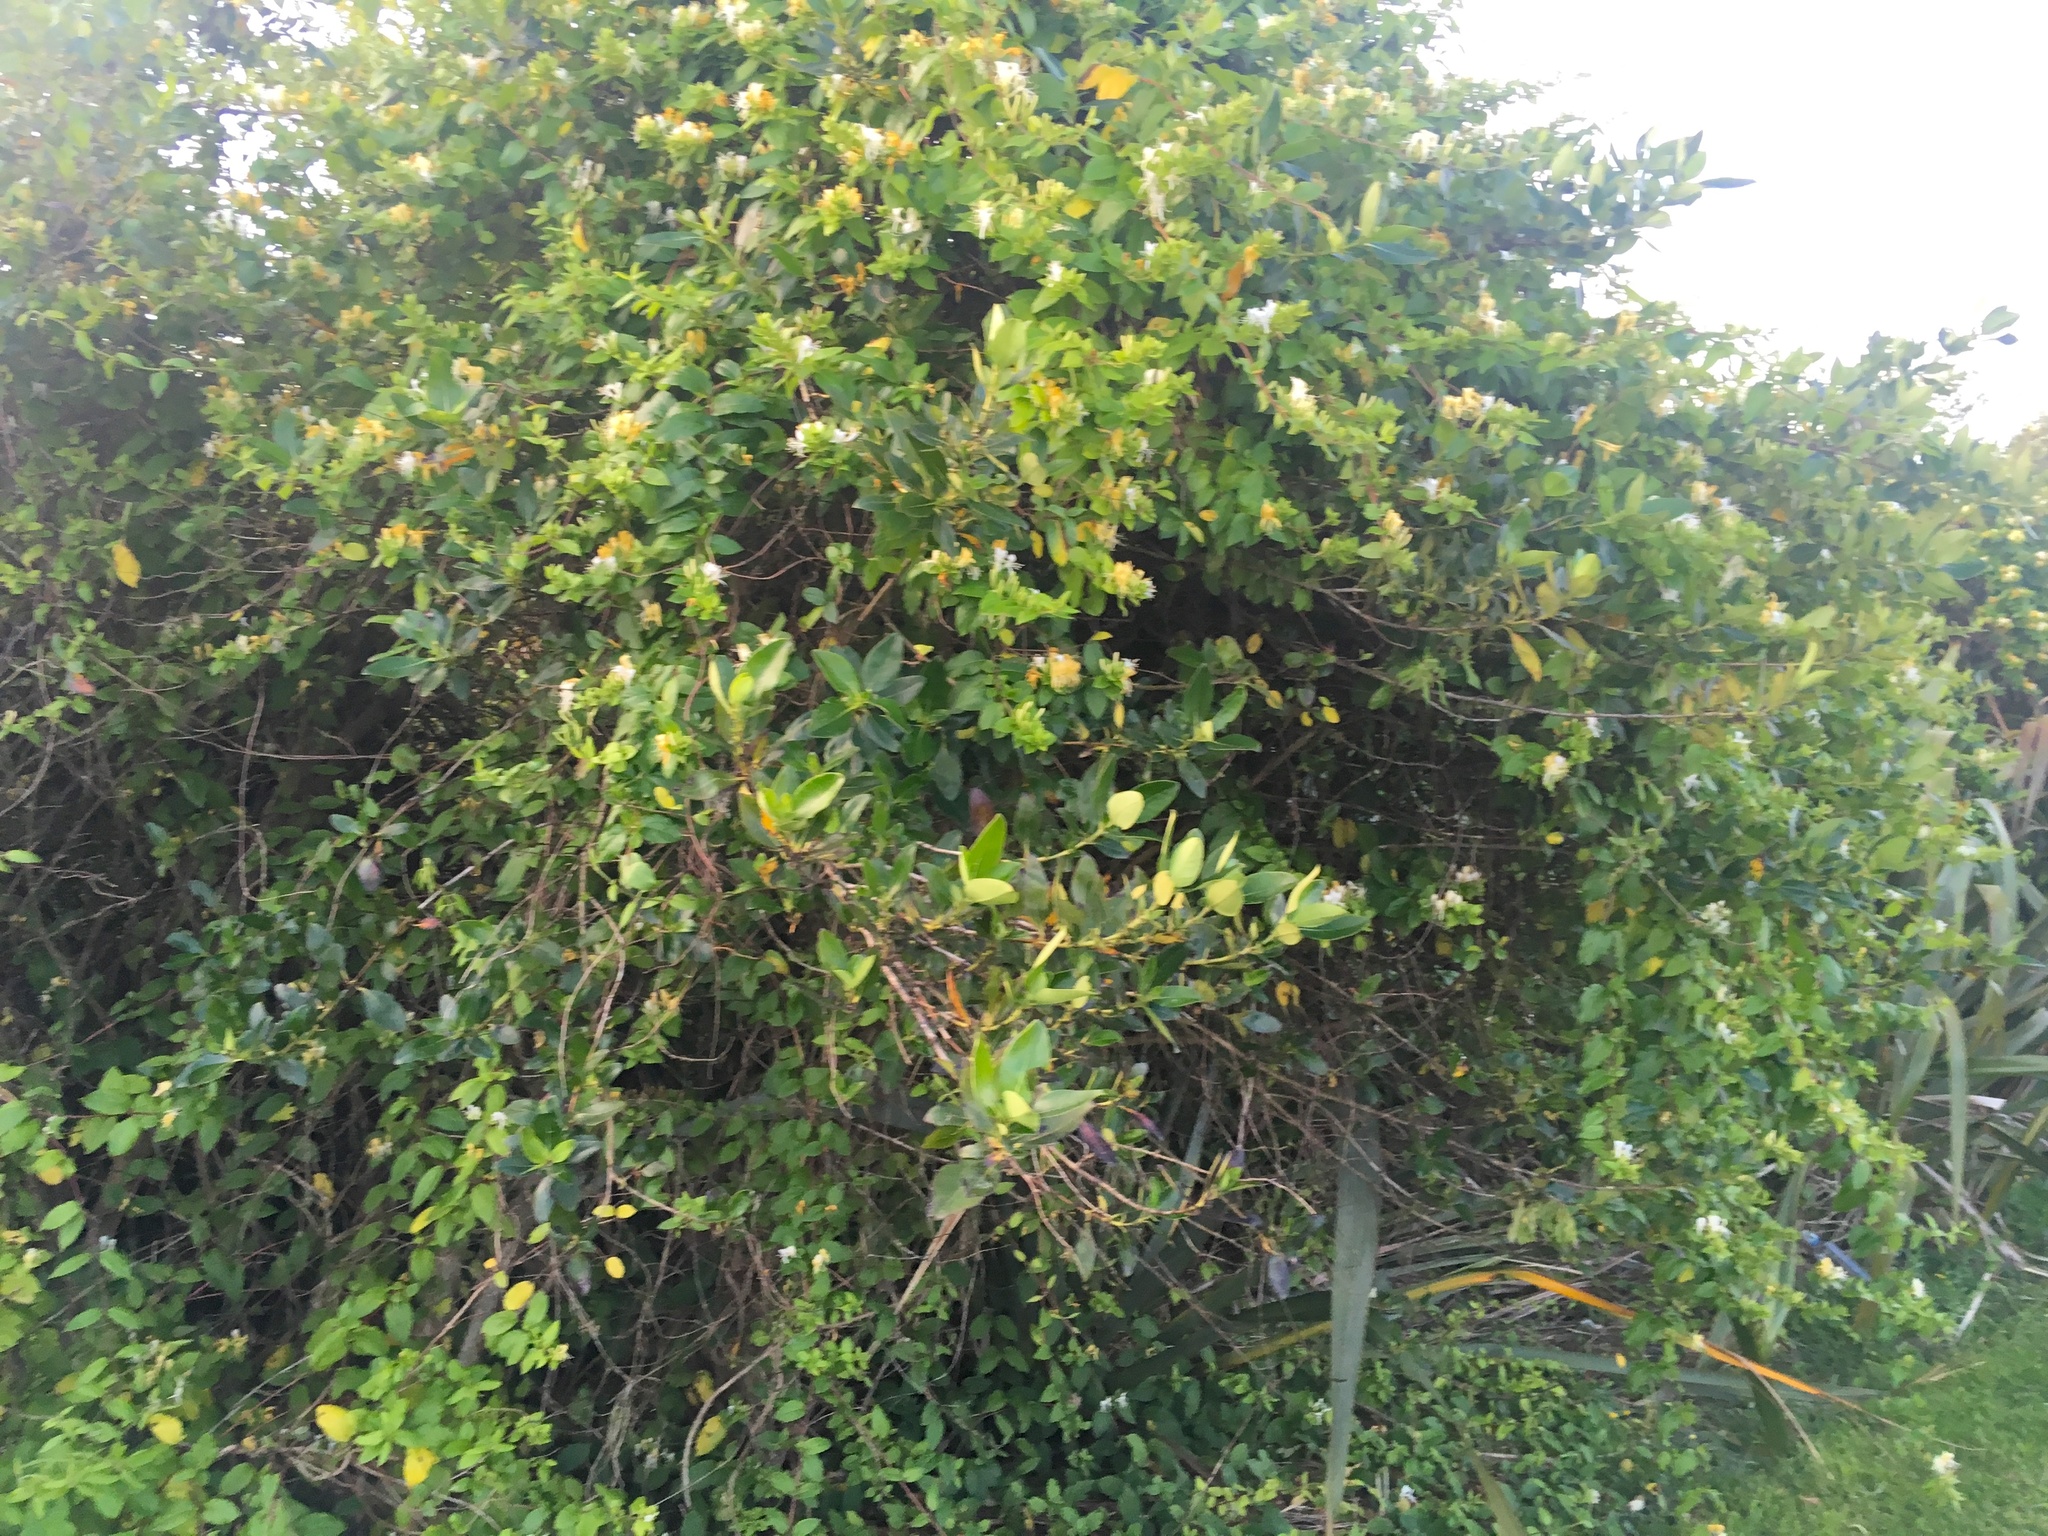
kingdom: Plantae
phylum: Tracheophyta
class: Magnoliopsida
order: Dipsacales
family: Caprifoliaceae
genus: Lonicera
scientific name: Lonicera japonica
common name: Japanese honeysuckle
